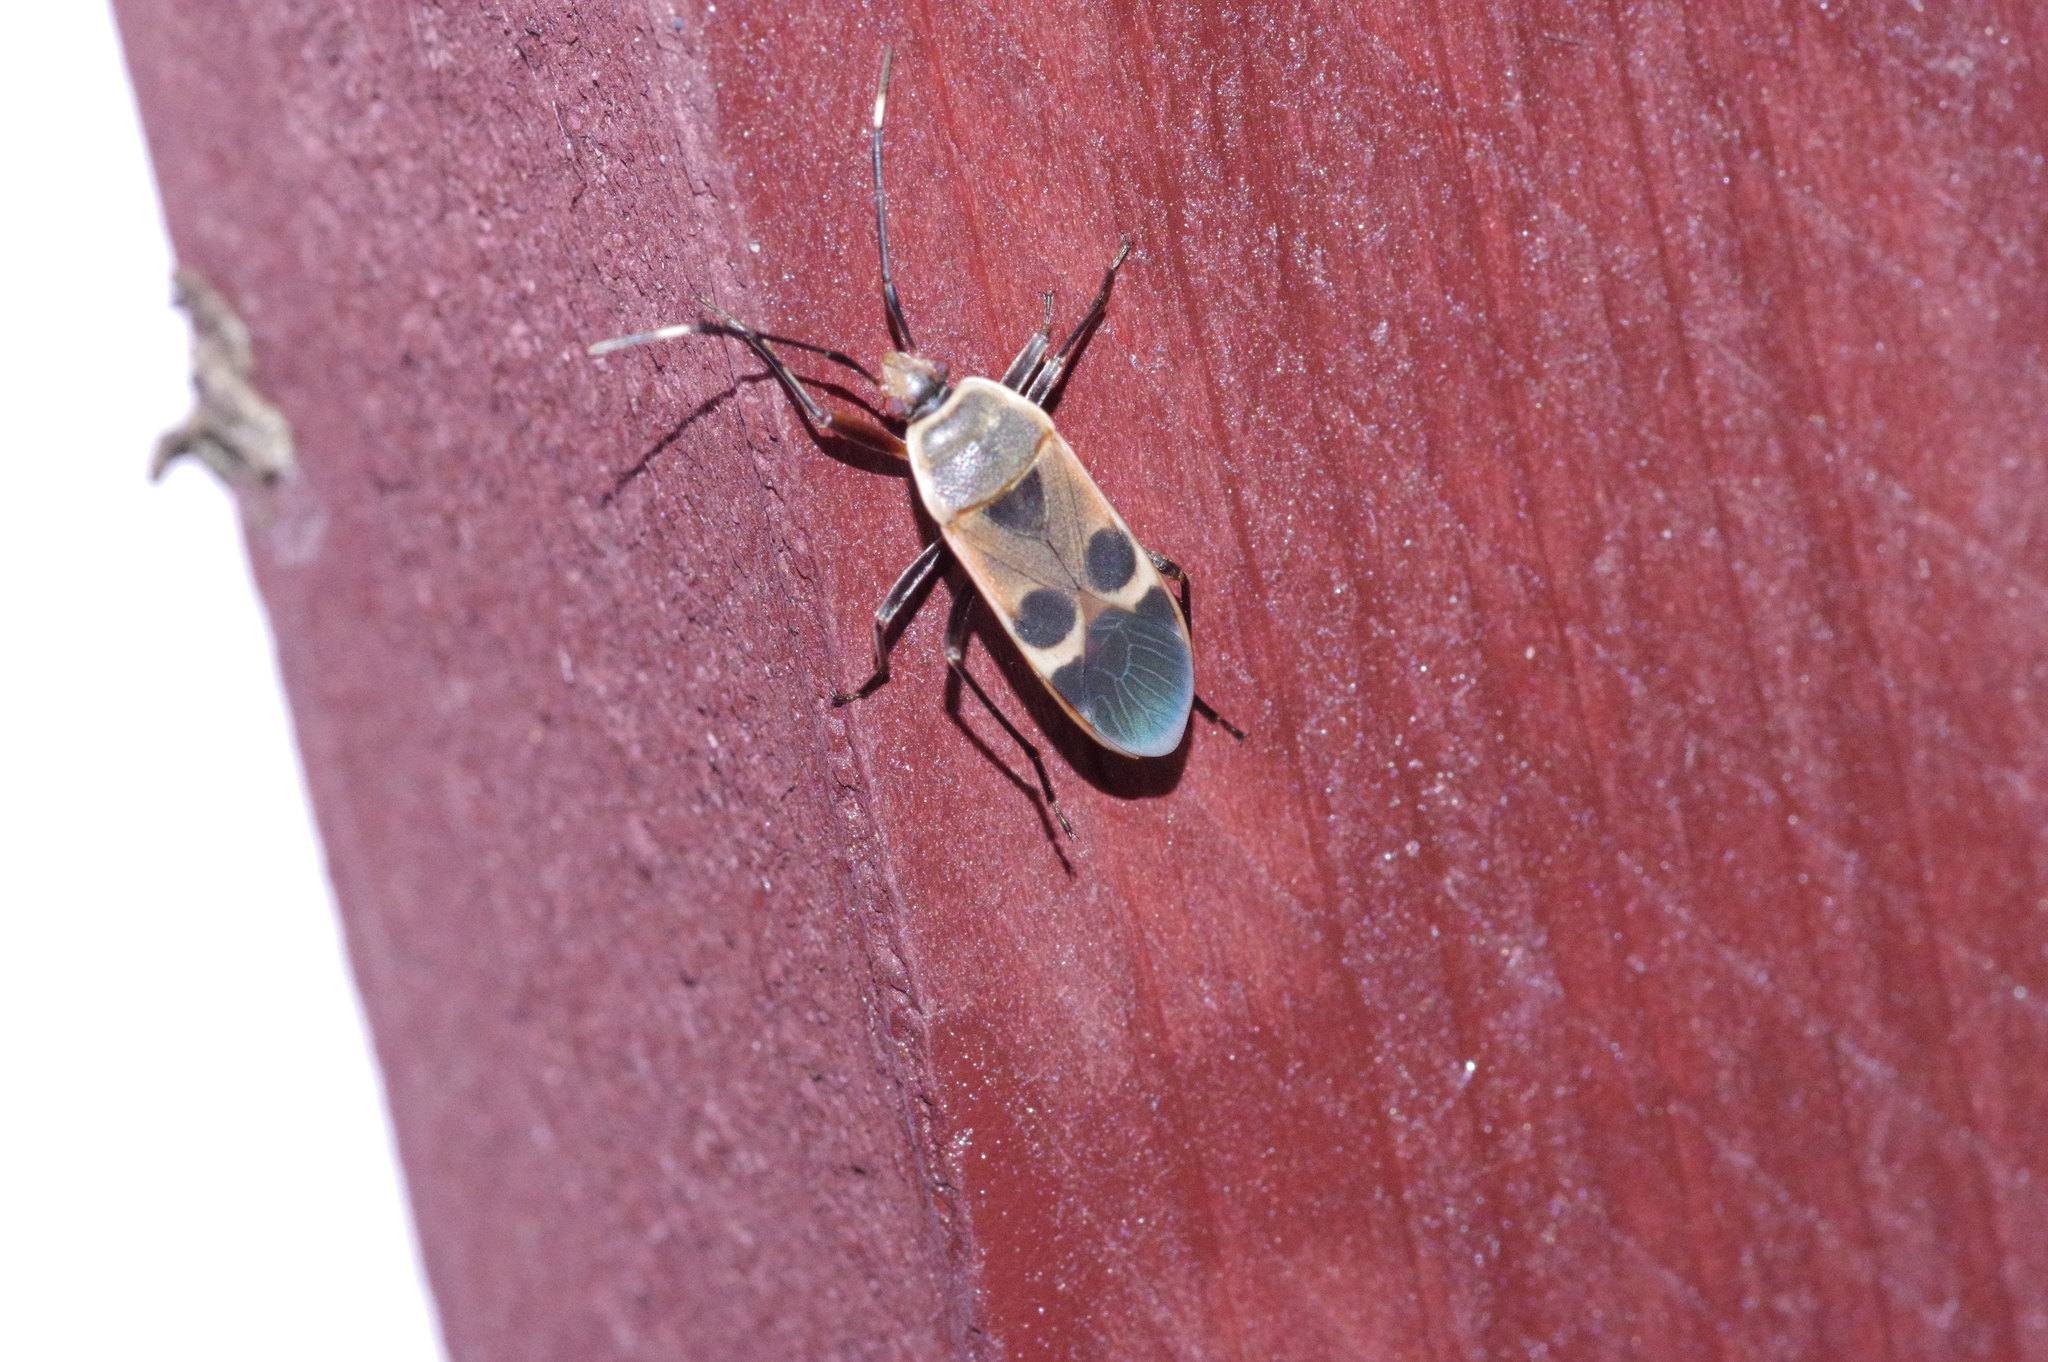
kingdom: Animalia
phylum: Arthropoda
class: Insecta
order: Hemiptera
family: Largidae
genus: Physopelta
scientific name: Physopelta gutta
